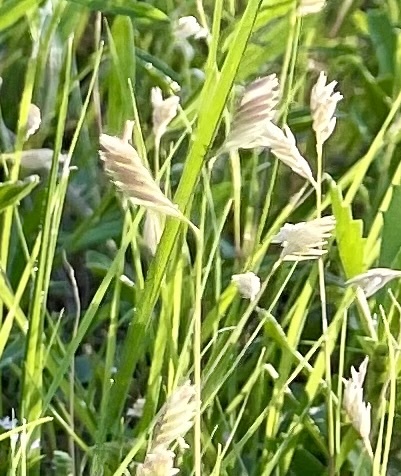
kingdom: Plantae
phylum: Tracheophyta
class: Liliopsida
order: Poales
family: Poaceae
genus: Bouteloua
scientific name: Bouteloua dactyloides
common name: Buffalo grass
